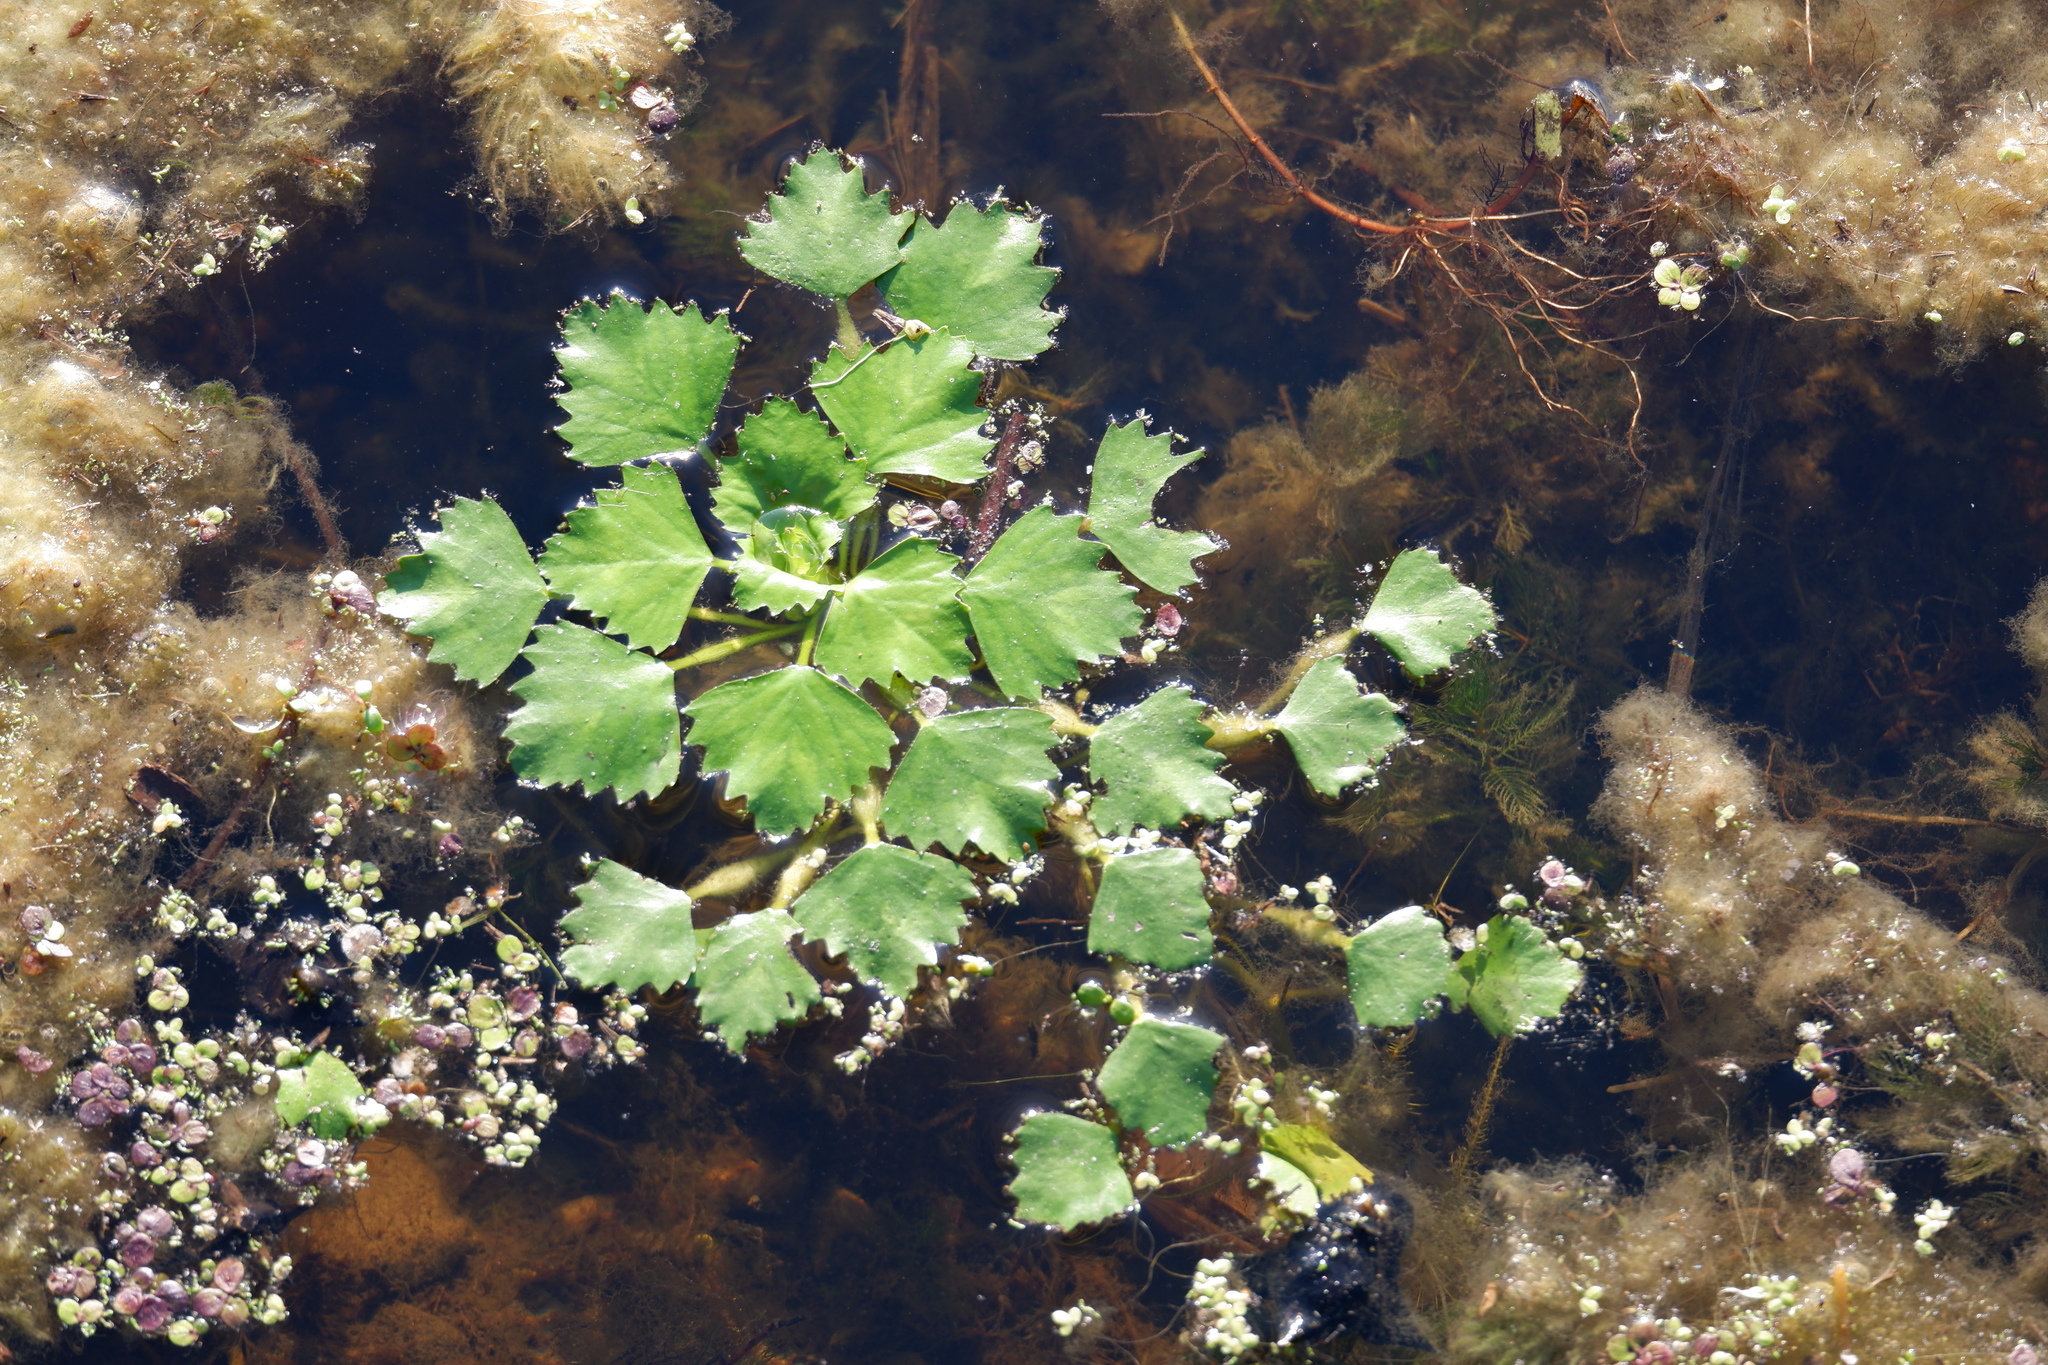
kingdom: Plantae
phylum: Tracheophyta
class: Magnoliopsida
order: Myrtales
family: Lythraceae
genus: Trapa
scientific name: Trapa natans
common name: Water chestnut
